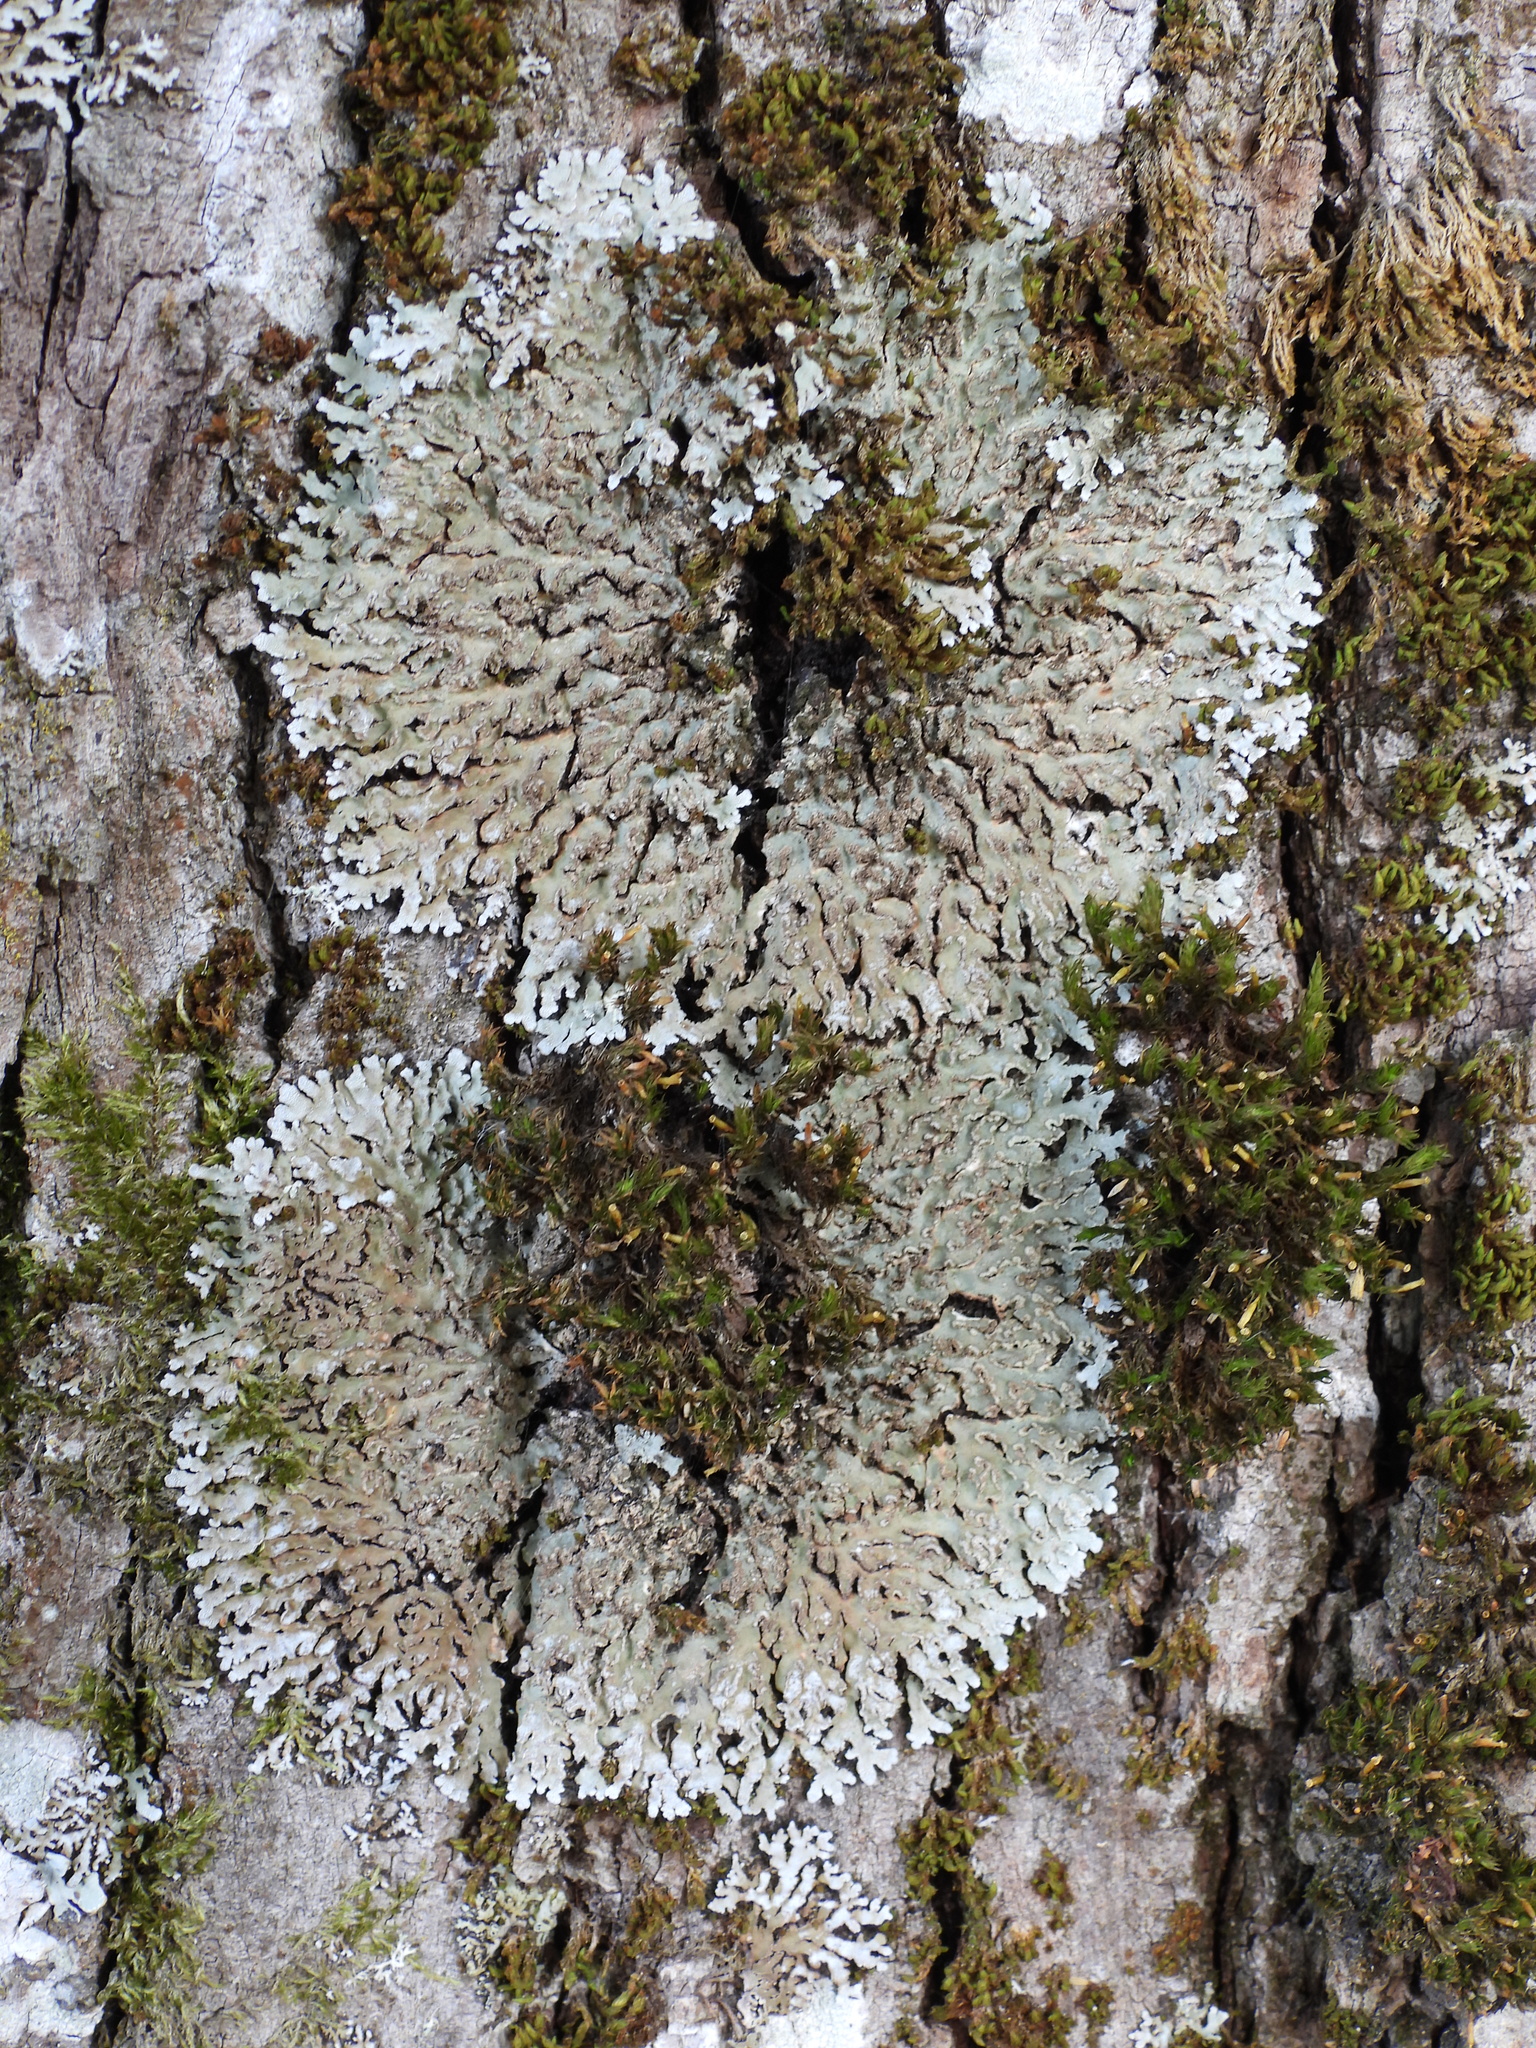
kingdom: Fungi
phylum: Ascomycota
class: Lecanoromycetes
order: Caliciales
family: Physciaceae
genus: Physconia
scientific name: Physconia enteroxantha
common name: Yellow-edged frost lichen
